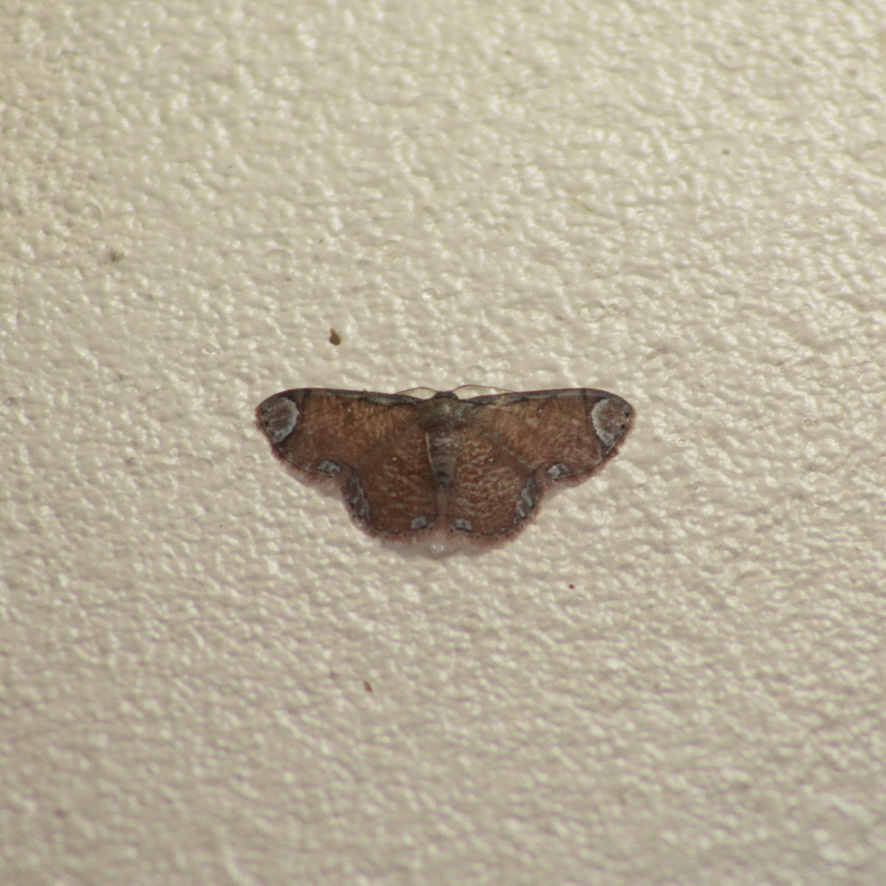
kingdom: Animalia
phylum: Arthropoda
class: Insecta
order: Lepidoptera
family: Geometridae
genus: Lipotaxia
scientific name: Lipotaxia rubicunda
